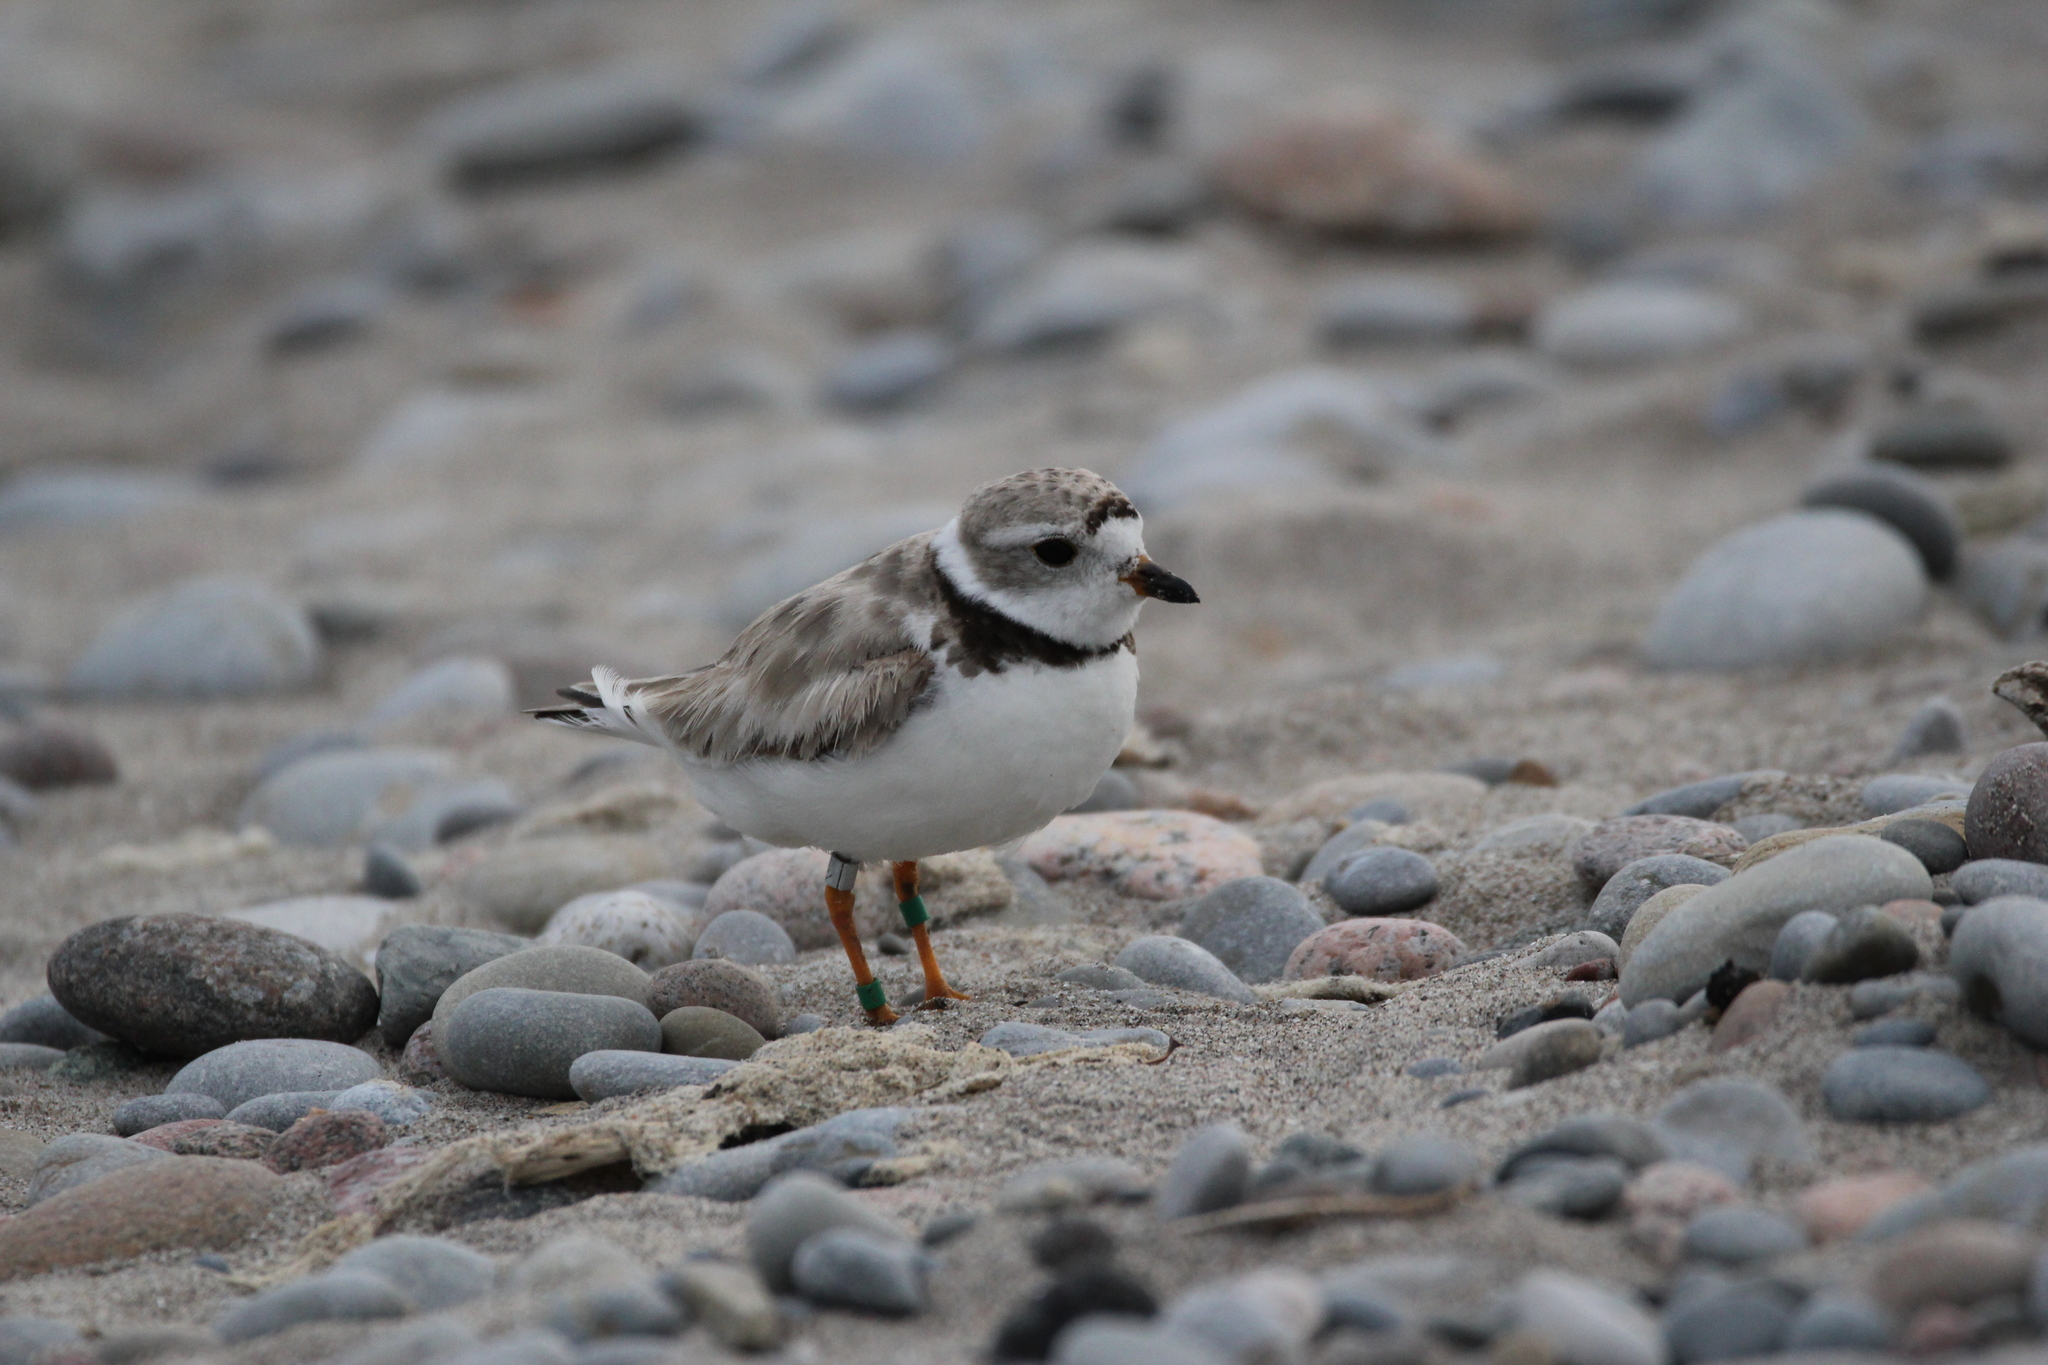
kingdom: Animalia
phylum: Chordata
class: Aves
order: Charadriiformes
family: Charadriidae
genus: Charadrius
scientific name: Charadrius melodus
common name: Piping plover
